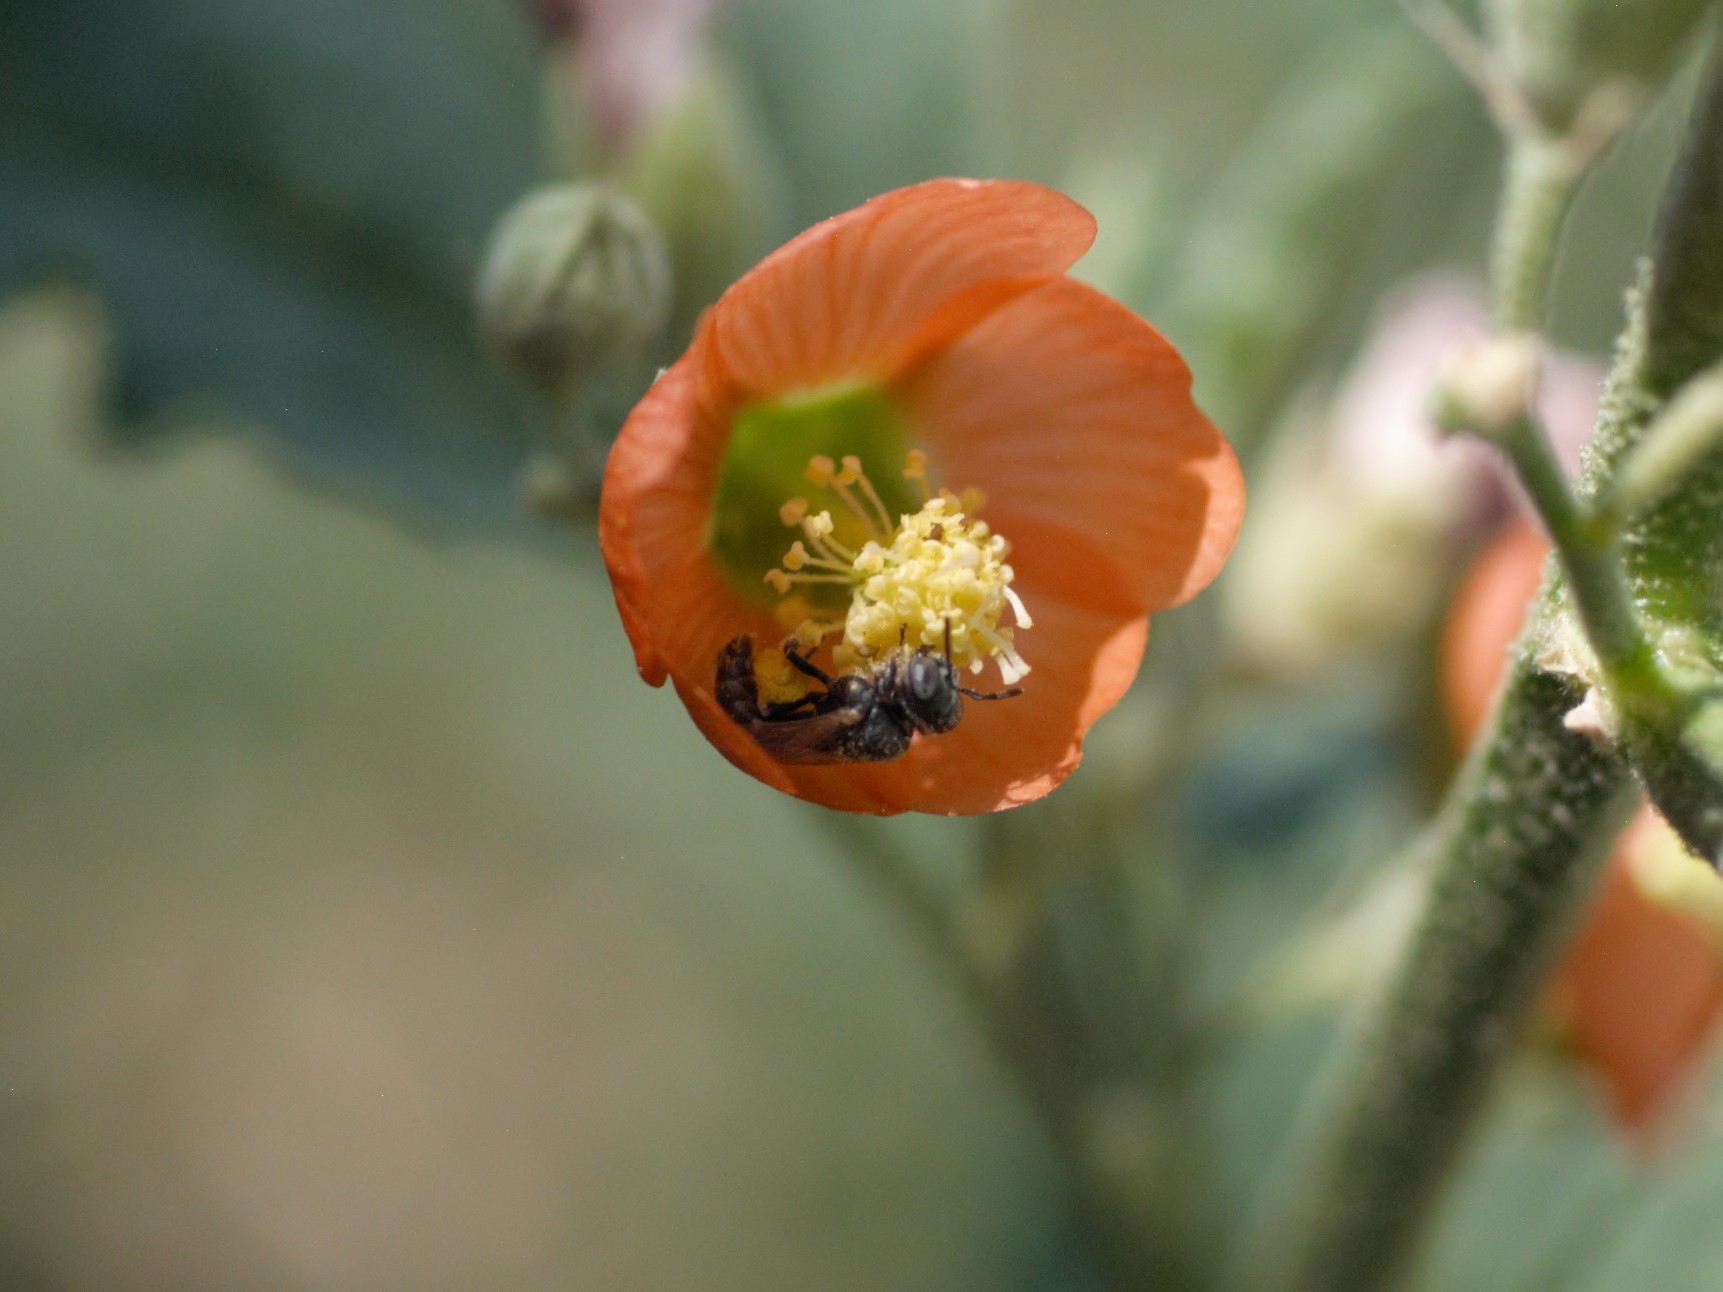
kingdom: Animalia
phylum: Arthropoda
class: Insecta
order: Hymenoptera
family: Andrenidae
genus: Macrotera
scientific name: Macrotera latior
